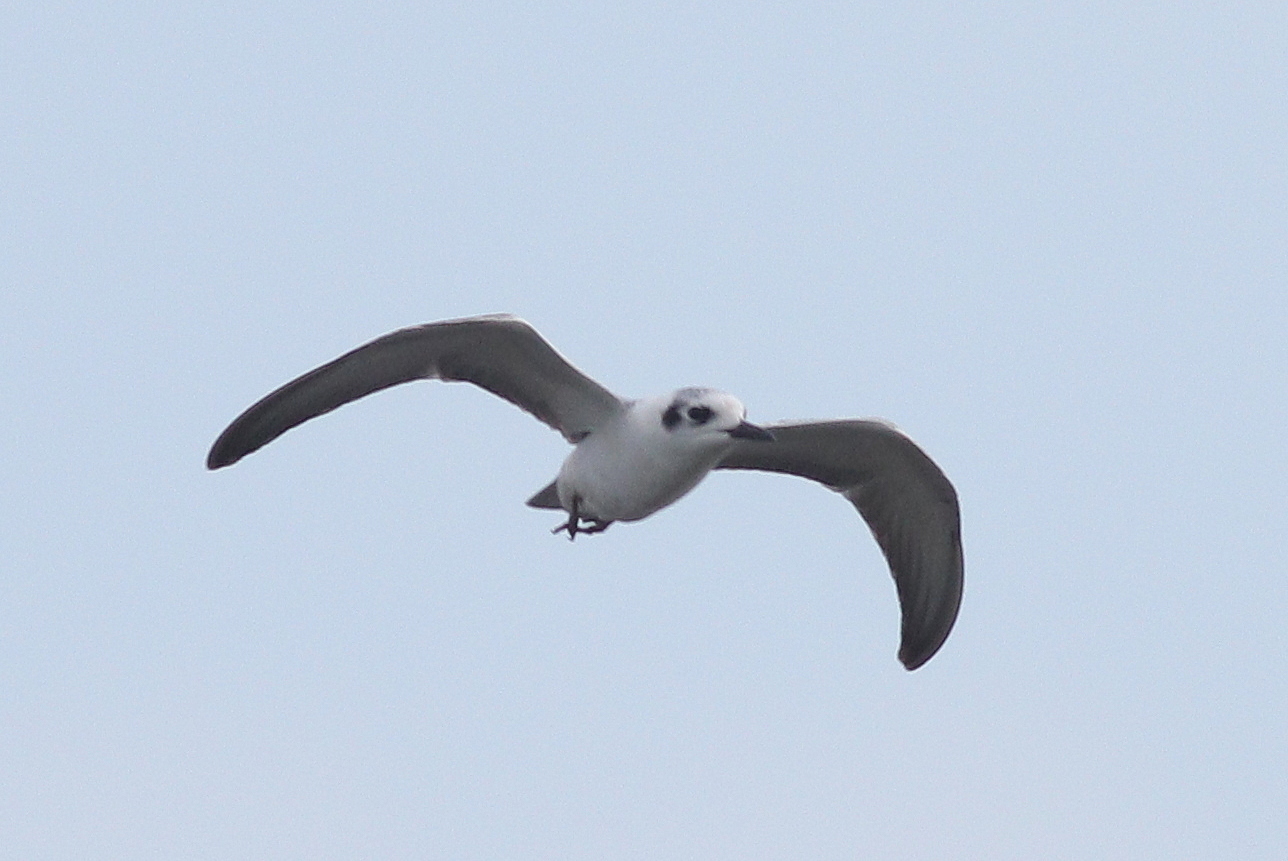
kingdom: Animalia
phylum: Chordata
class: Aves
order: Charadriiformes
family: Laridae
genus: Chlidonias
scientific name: Chlidonias leucopterus
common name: White-winged tern
